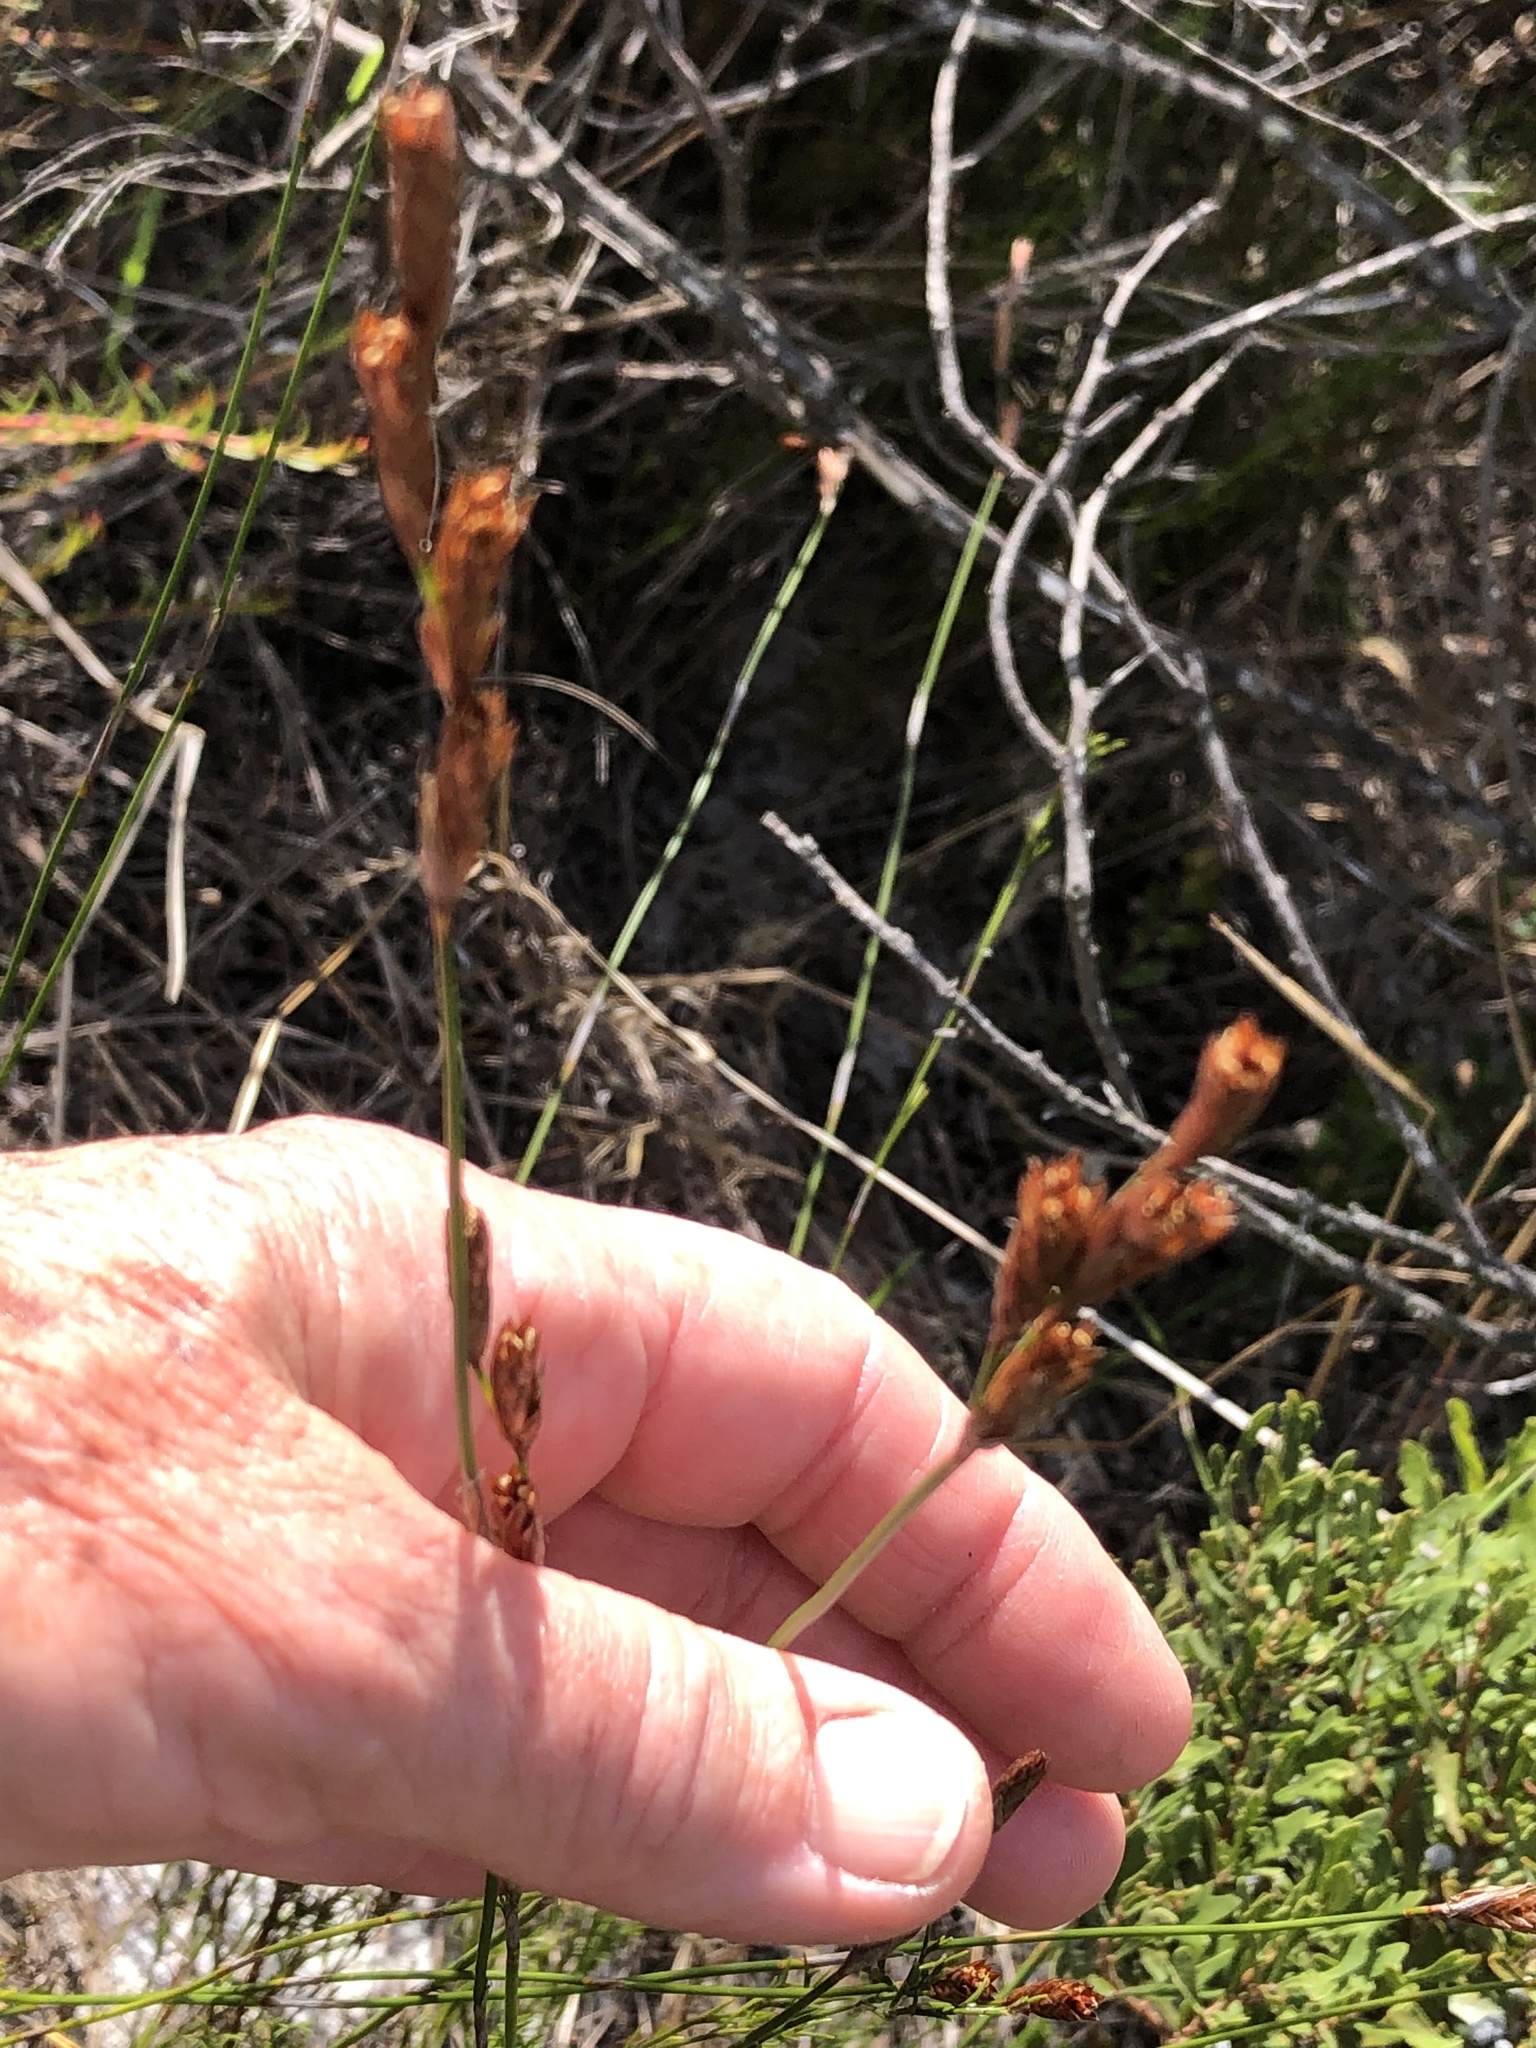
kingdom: Plantae
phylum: Tracheophyta
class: Liliopsida
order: Poales
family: Restionaceae
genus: Thamnochortus
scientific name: Thamnochortus obtusus
